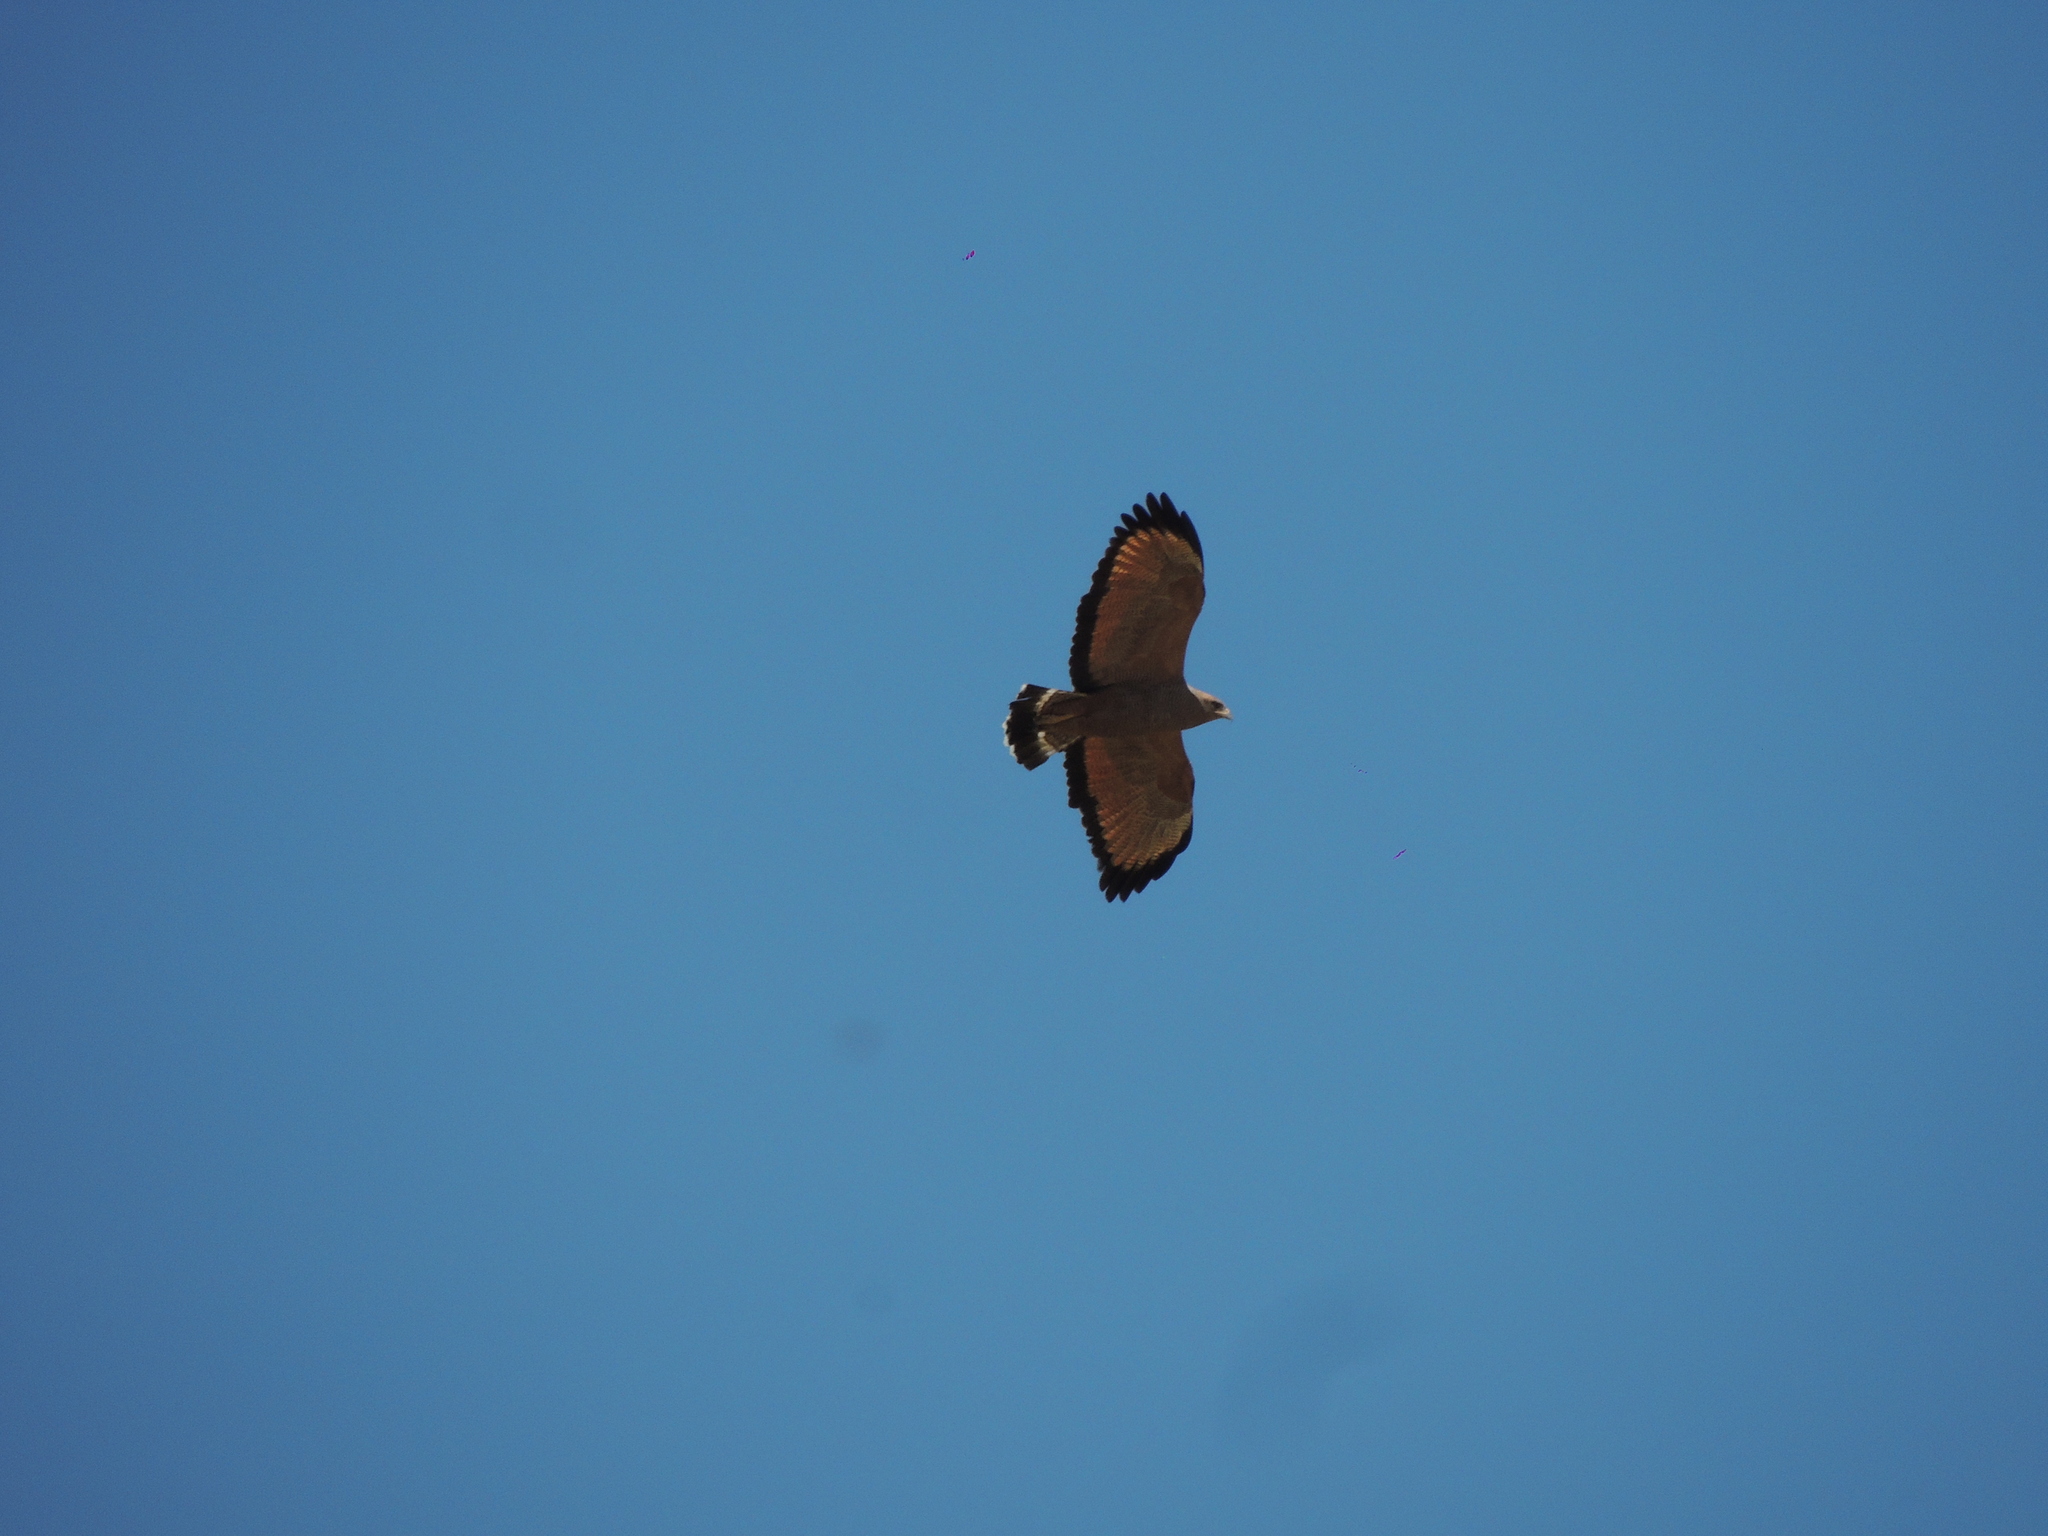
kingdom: Animalia
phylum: Chordata
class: Aves
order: Accipitriformes
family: Accipitridae
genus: Buteogallus
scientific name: Buteogallus meridionalis
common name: Savanna hawk
